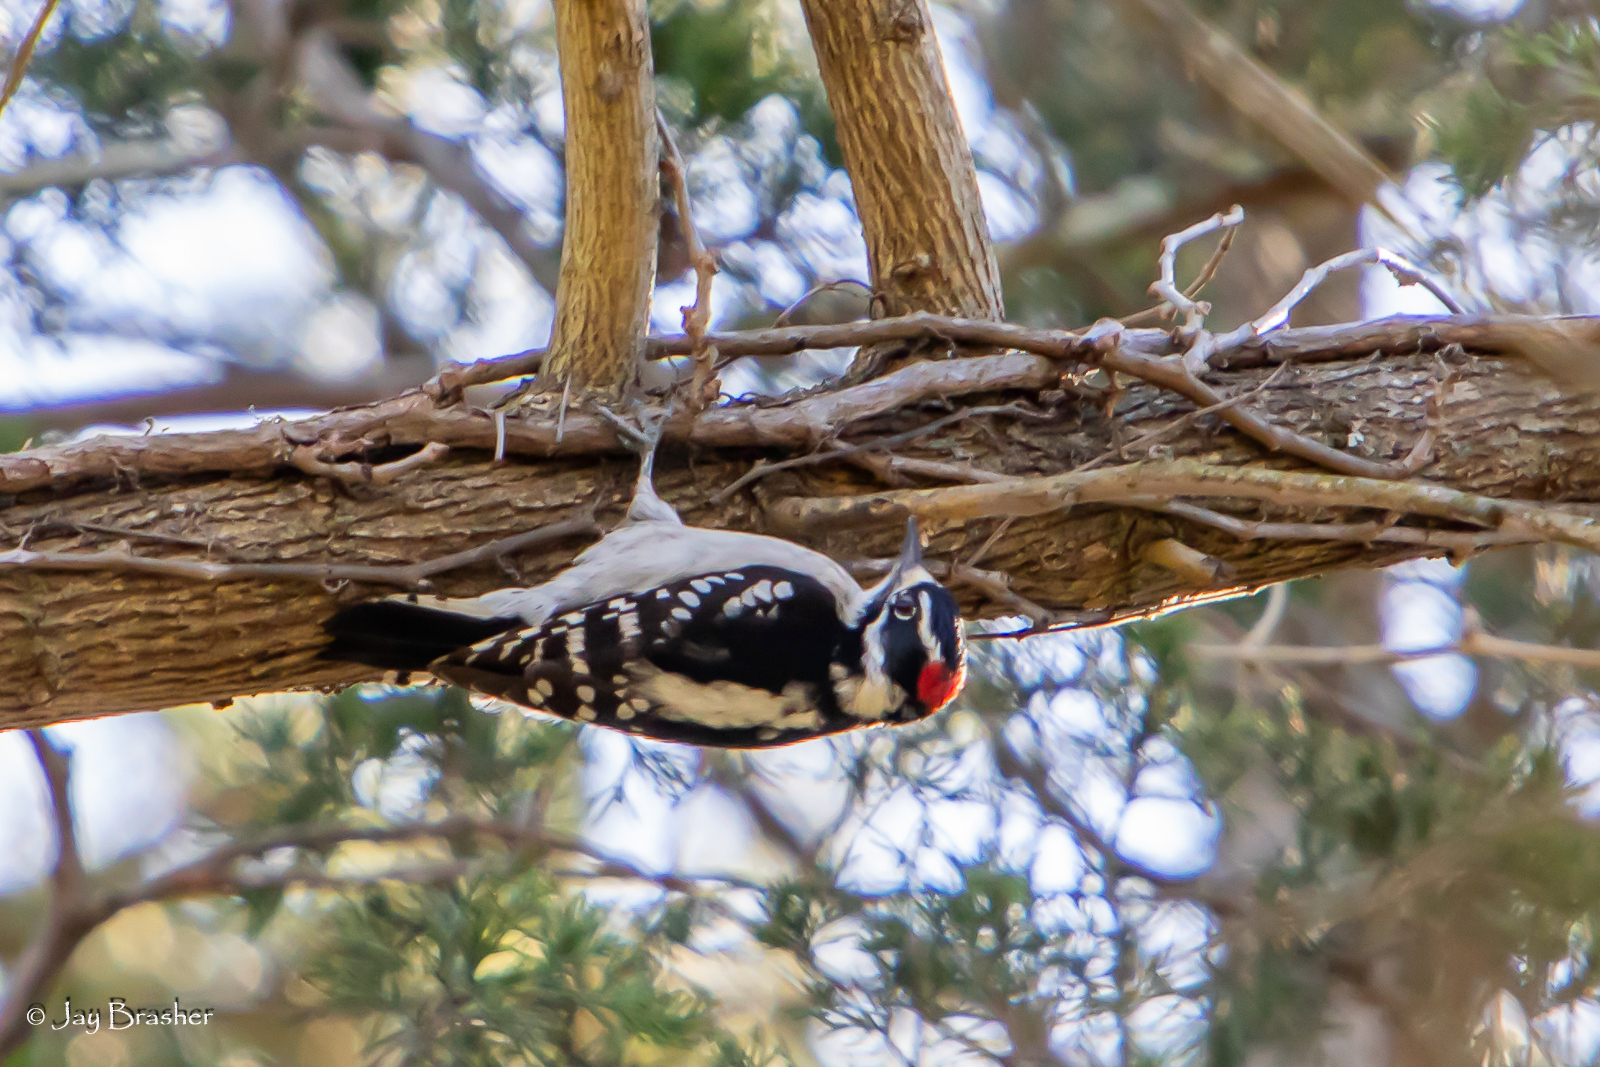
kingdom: Animalia
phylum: Chordata
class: Aves
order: Piciformes
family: Picidae
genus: Dryobates
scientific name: Dryobates pubescens
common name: Downy woodpecker
